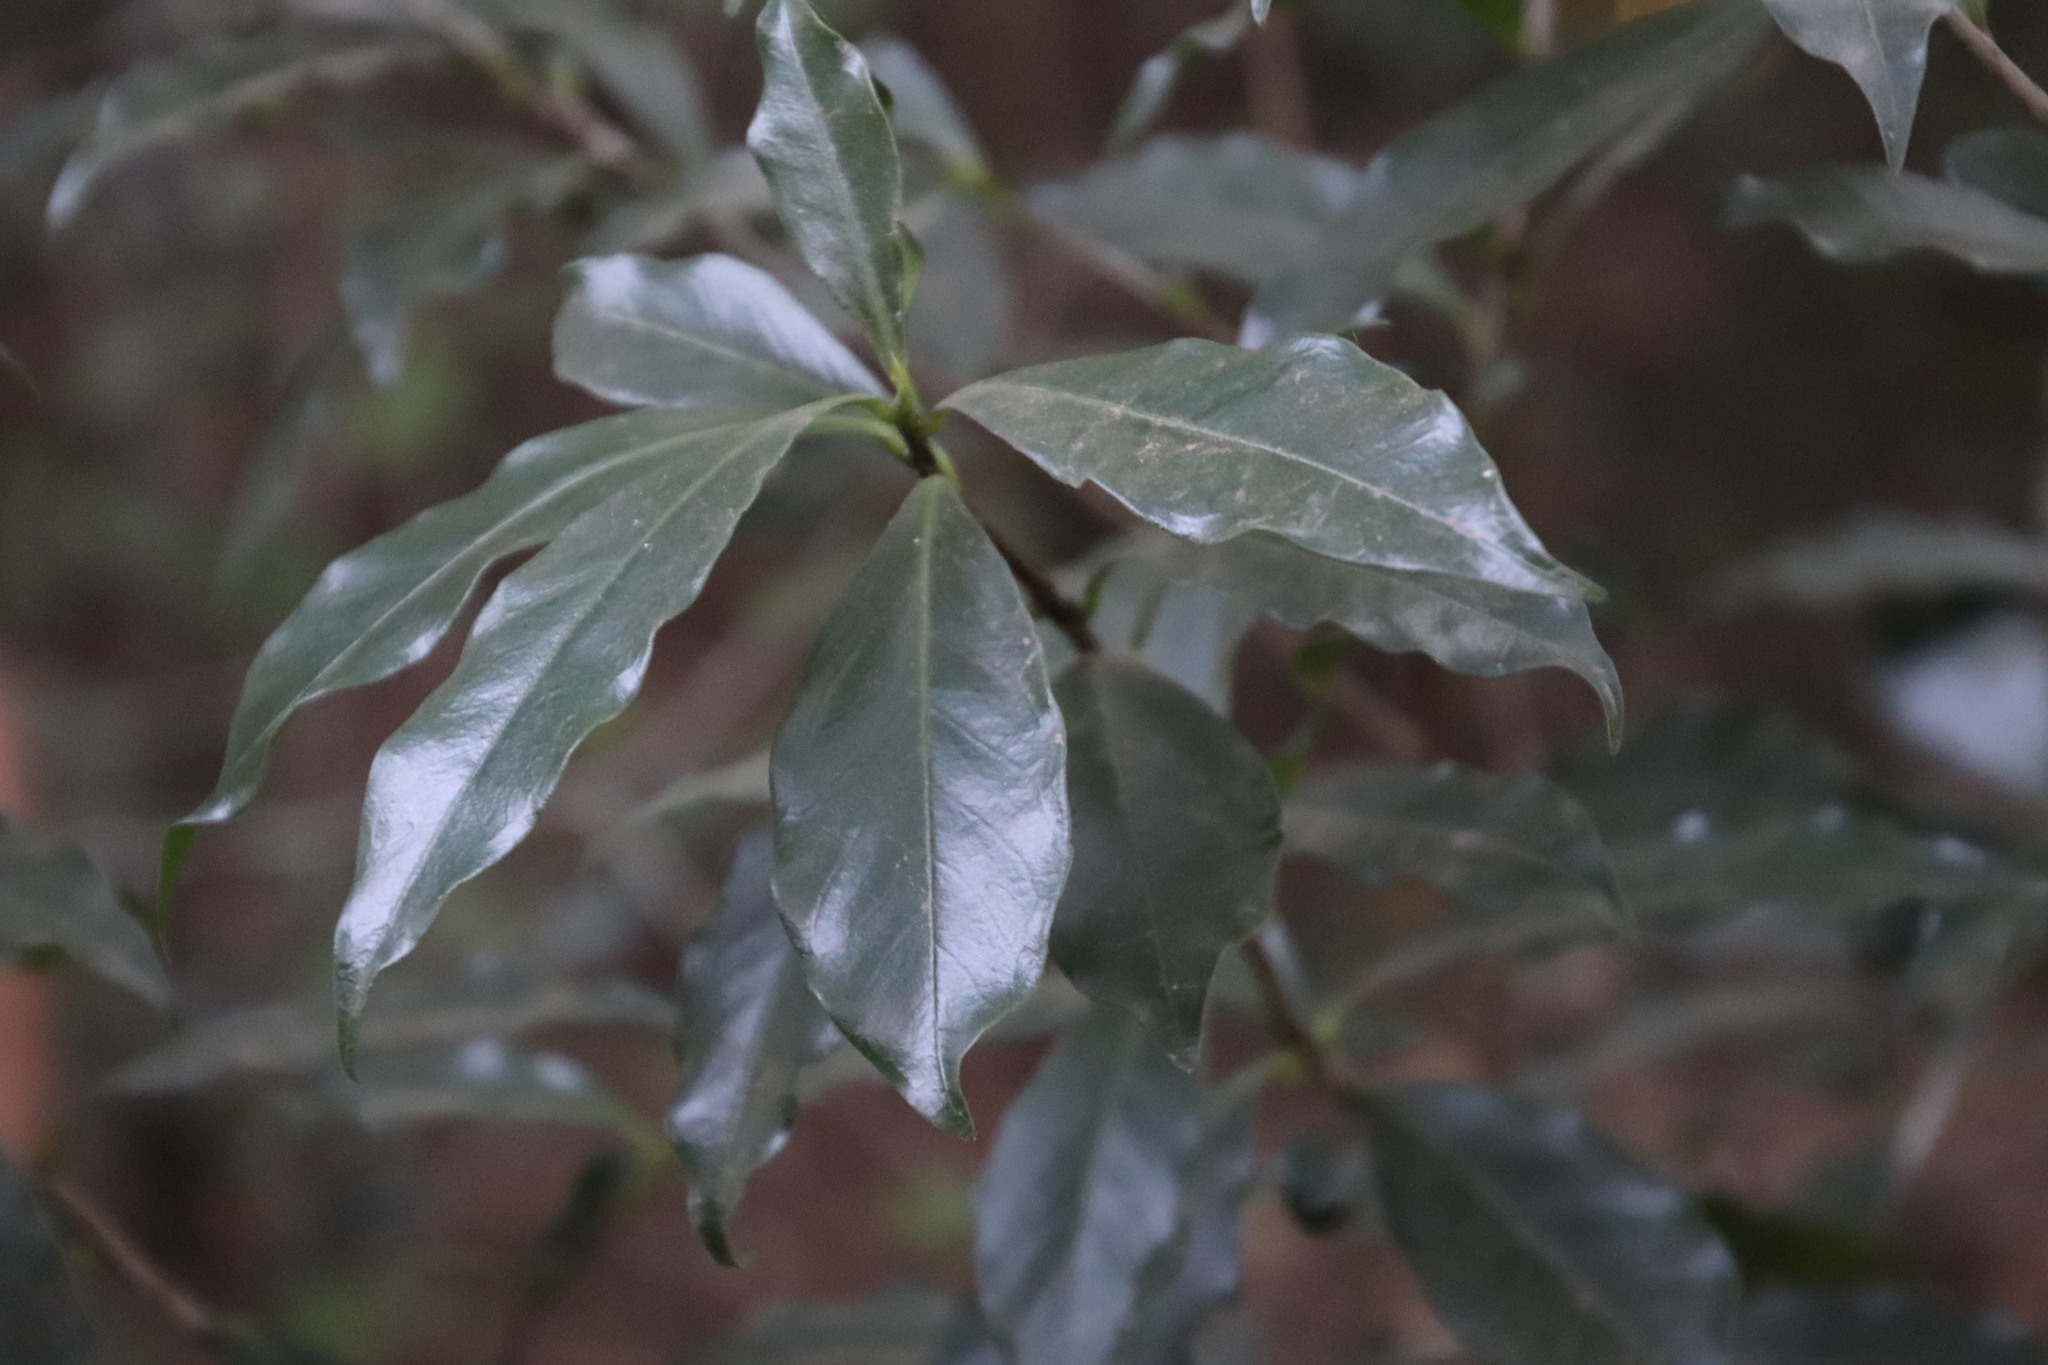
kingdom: Plantae
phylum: Tracheophyta
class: Magnoliopsida
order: Malvales
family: Thymelaeaceae
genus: Peddiea
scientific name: Peddiea africana
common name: Poison olive
